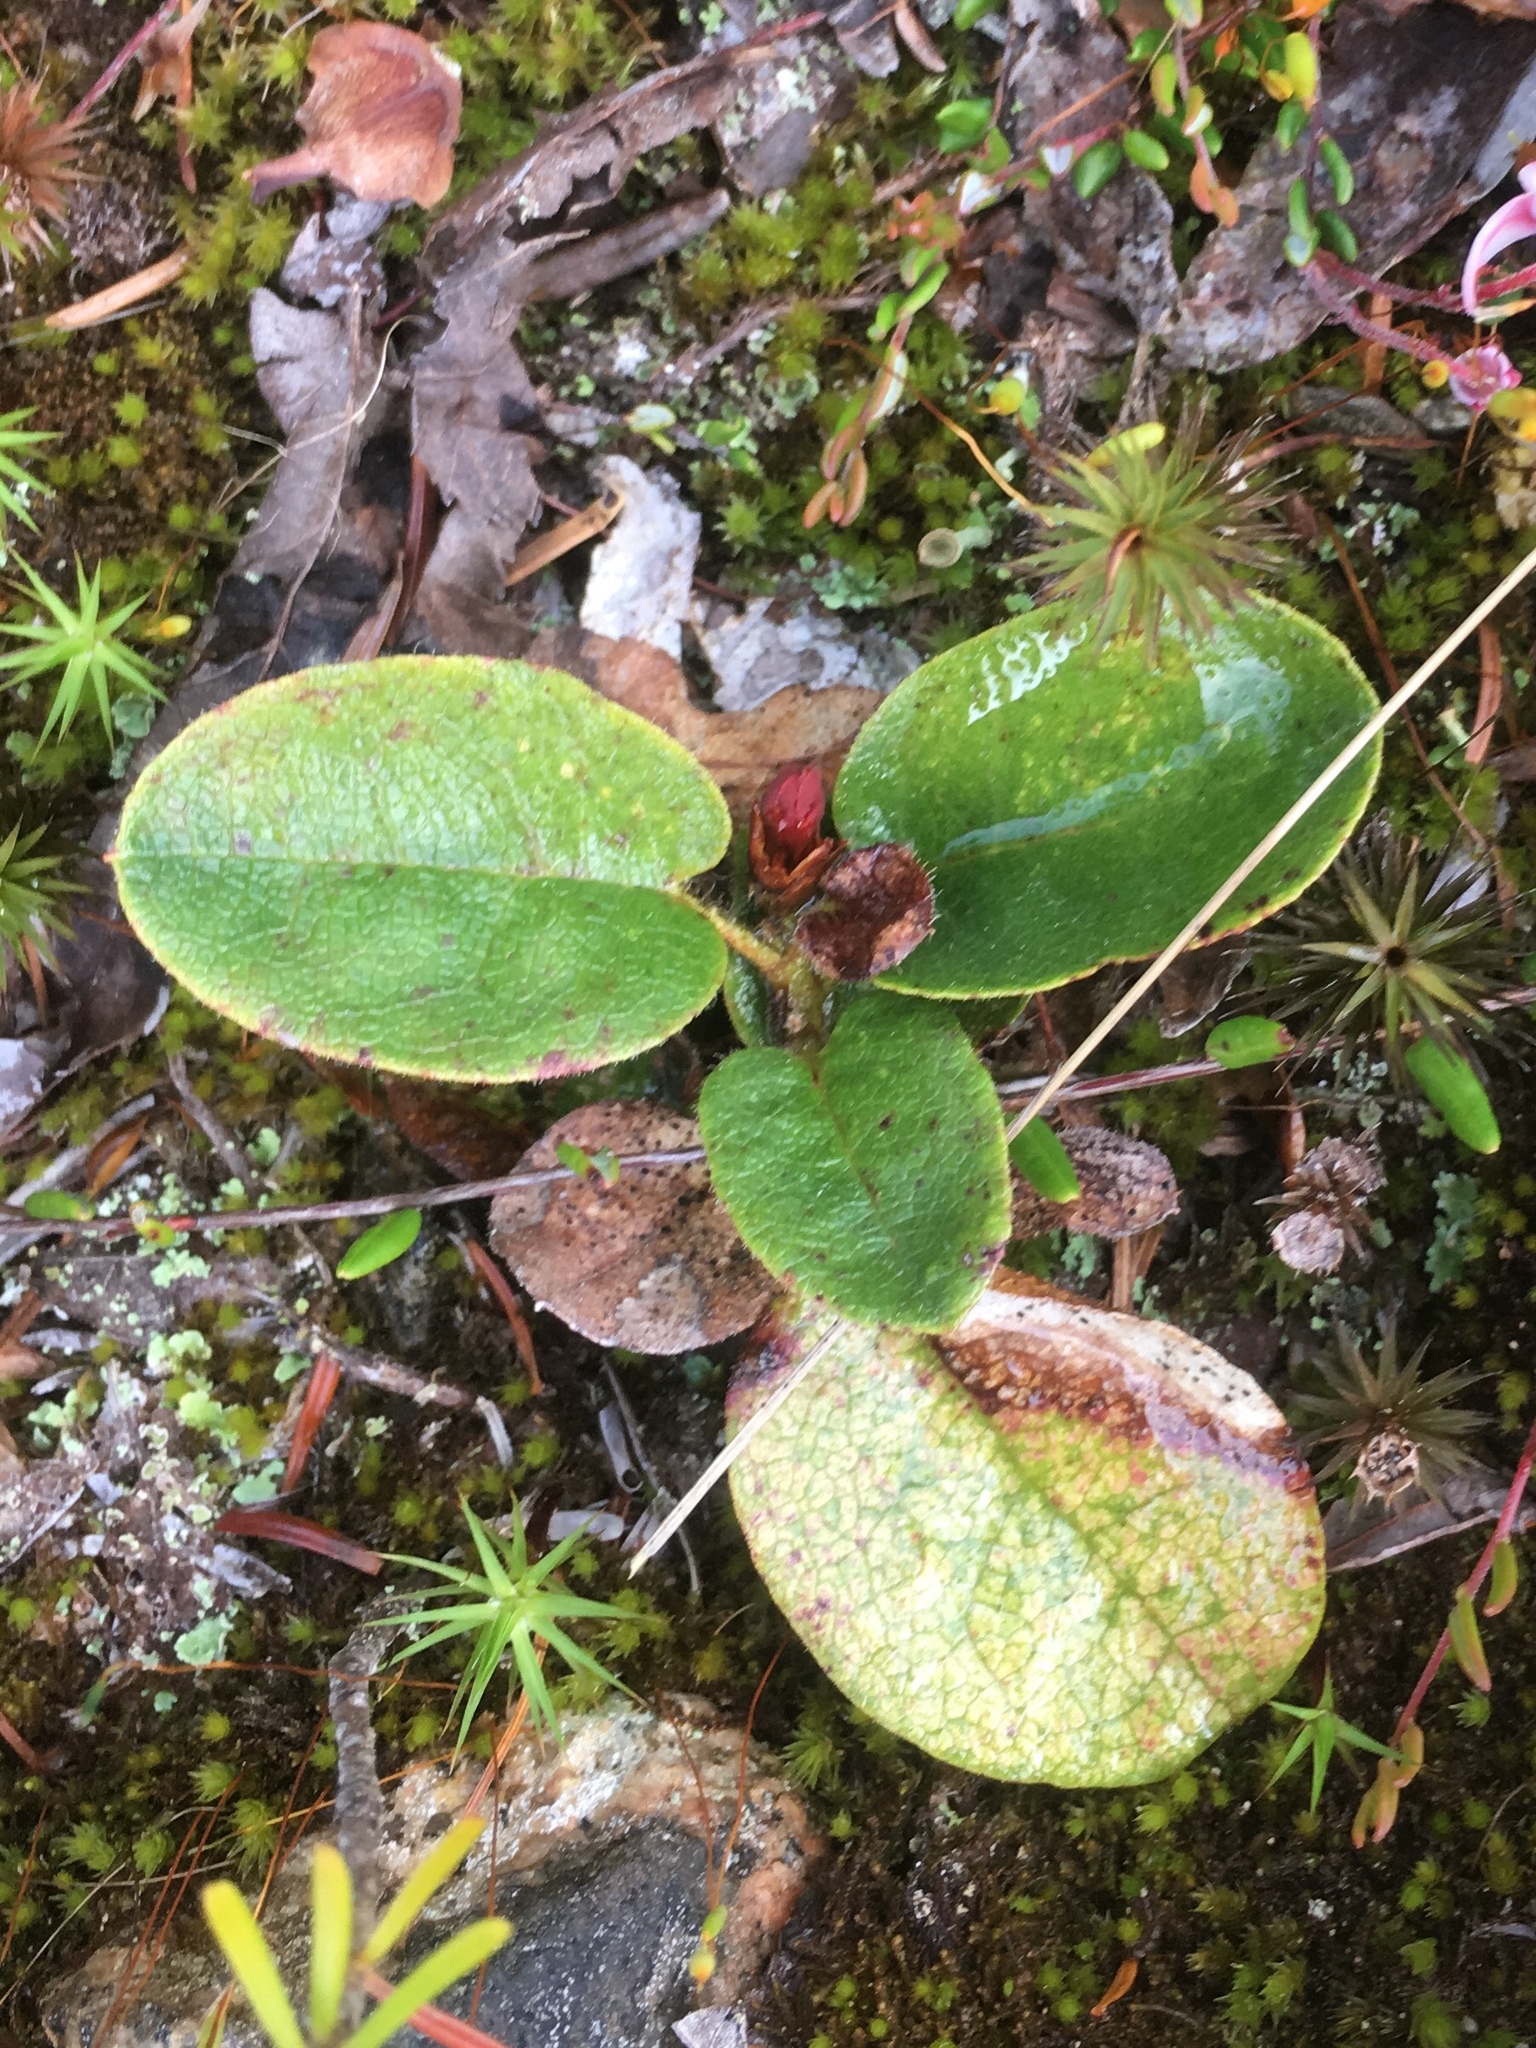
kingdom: Plantae
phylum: Tracheophyta
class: Magnoliopsida
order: Ericales
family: Ericaceae
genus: Epigaea
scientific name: Epigaea repens
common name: Gravelroot
